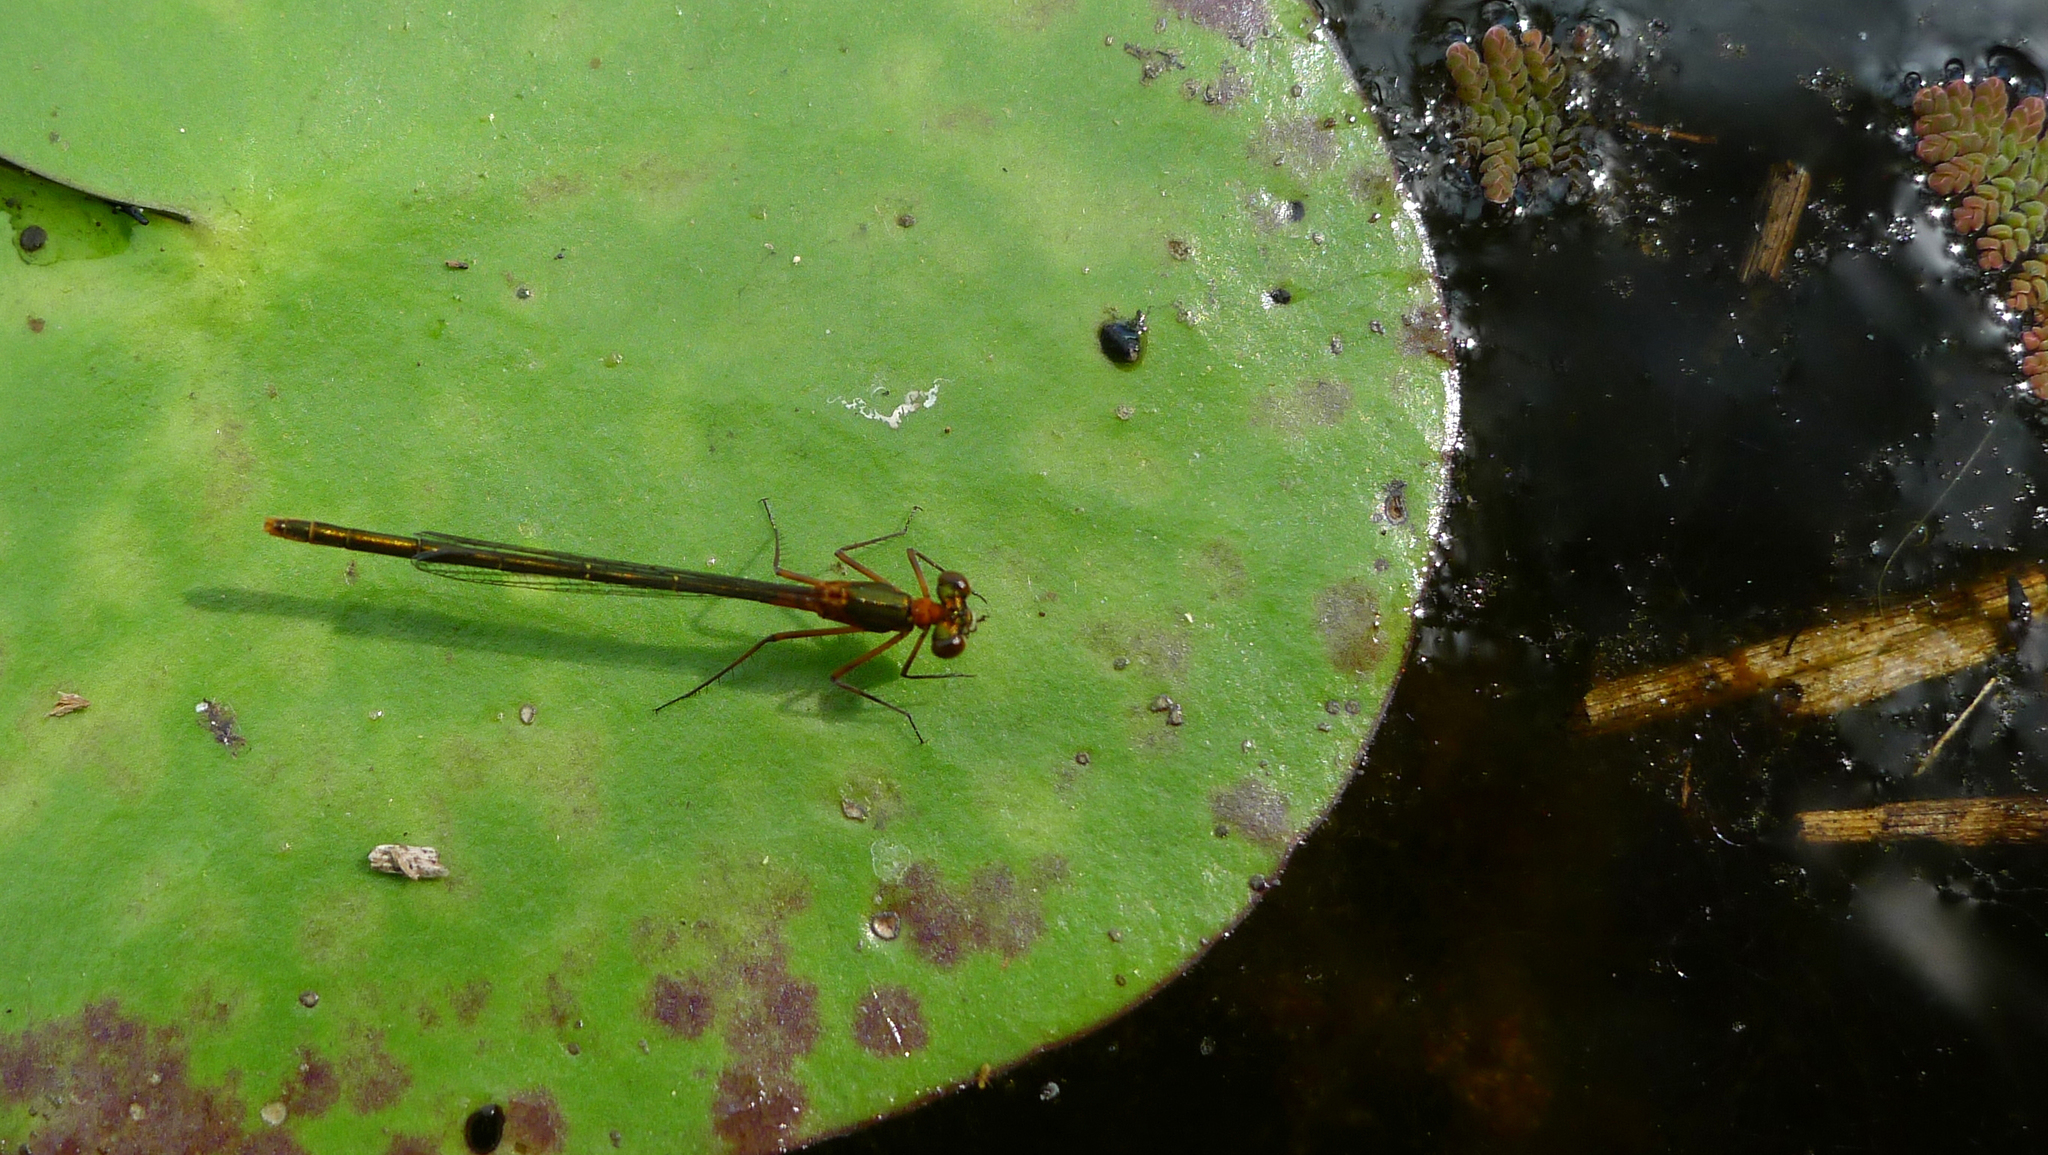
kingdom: Animalia
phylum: Arthropoda
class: Insecta
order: Odonata
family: Coenagrionidae
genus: Austrocnemis
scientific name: Austrocnemis splendida
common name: Splendid longlegs
